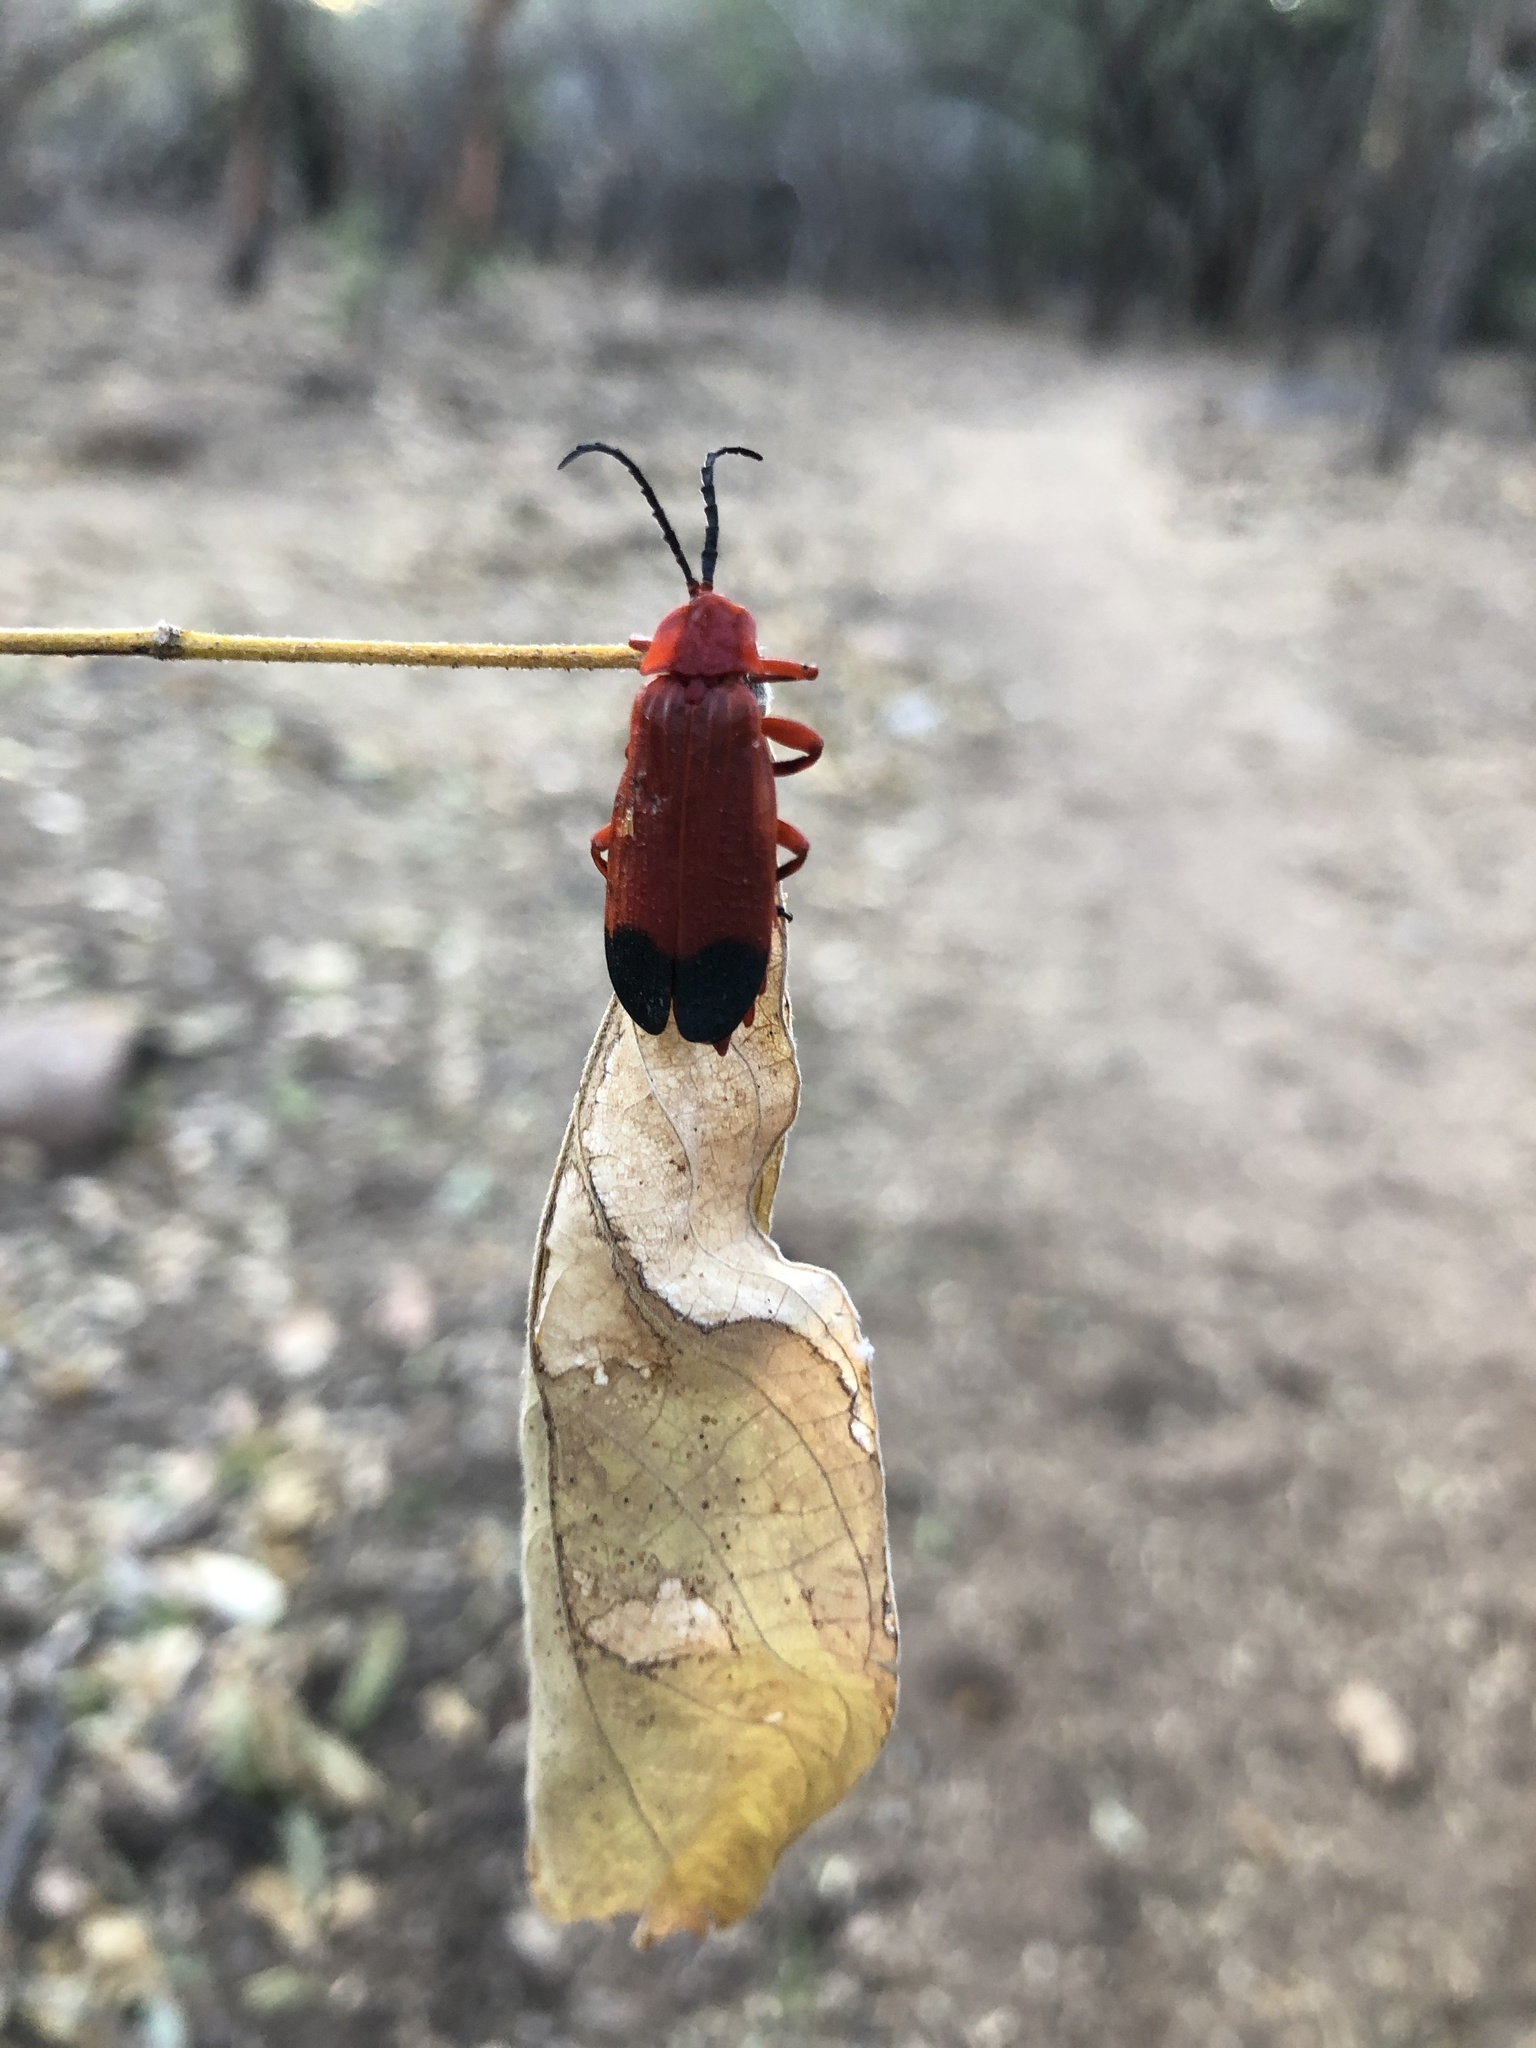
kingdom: Animalia
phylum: Arthropoda
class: Insecta
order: Coleoptera
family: Lycidae
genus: Lycus
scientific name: Lycus sanguineus
